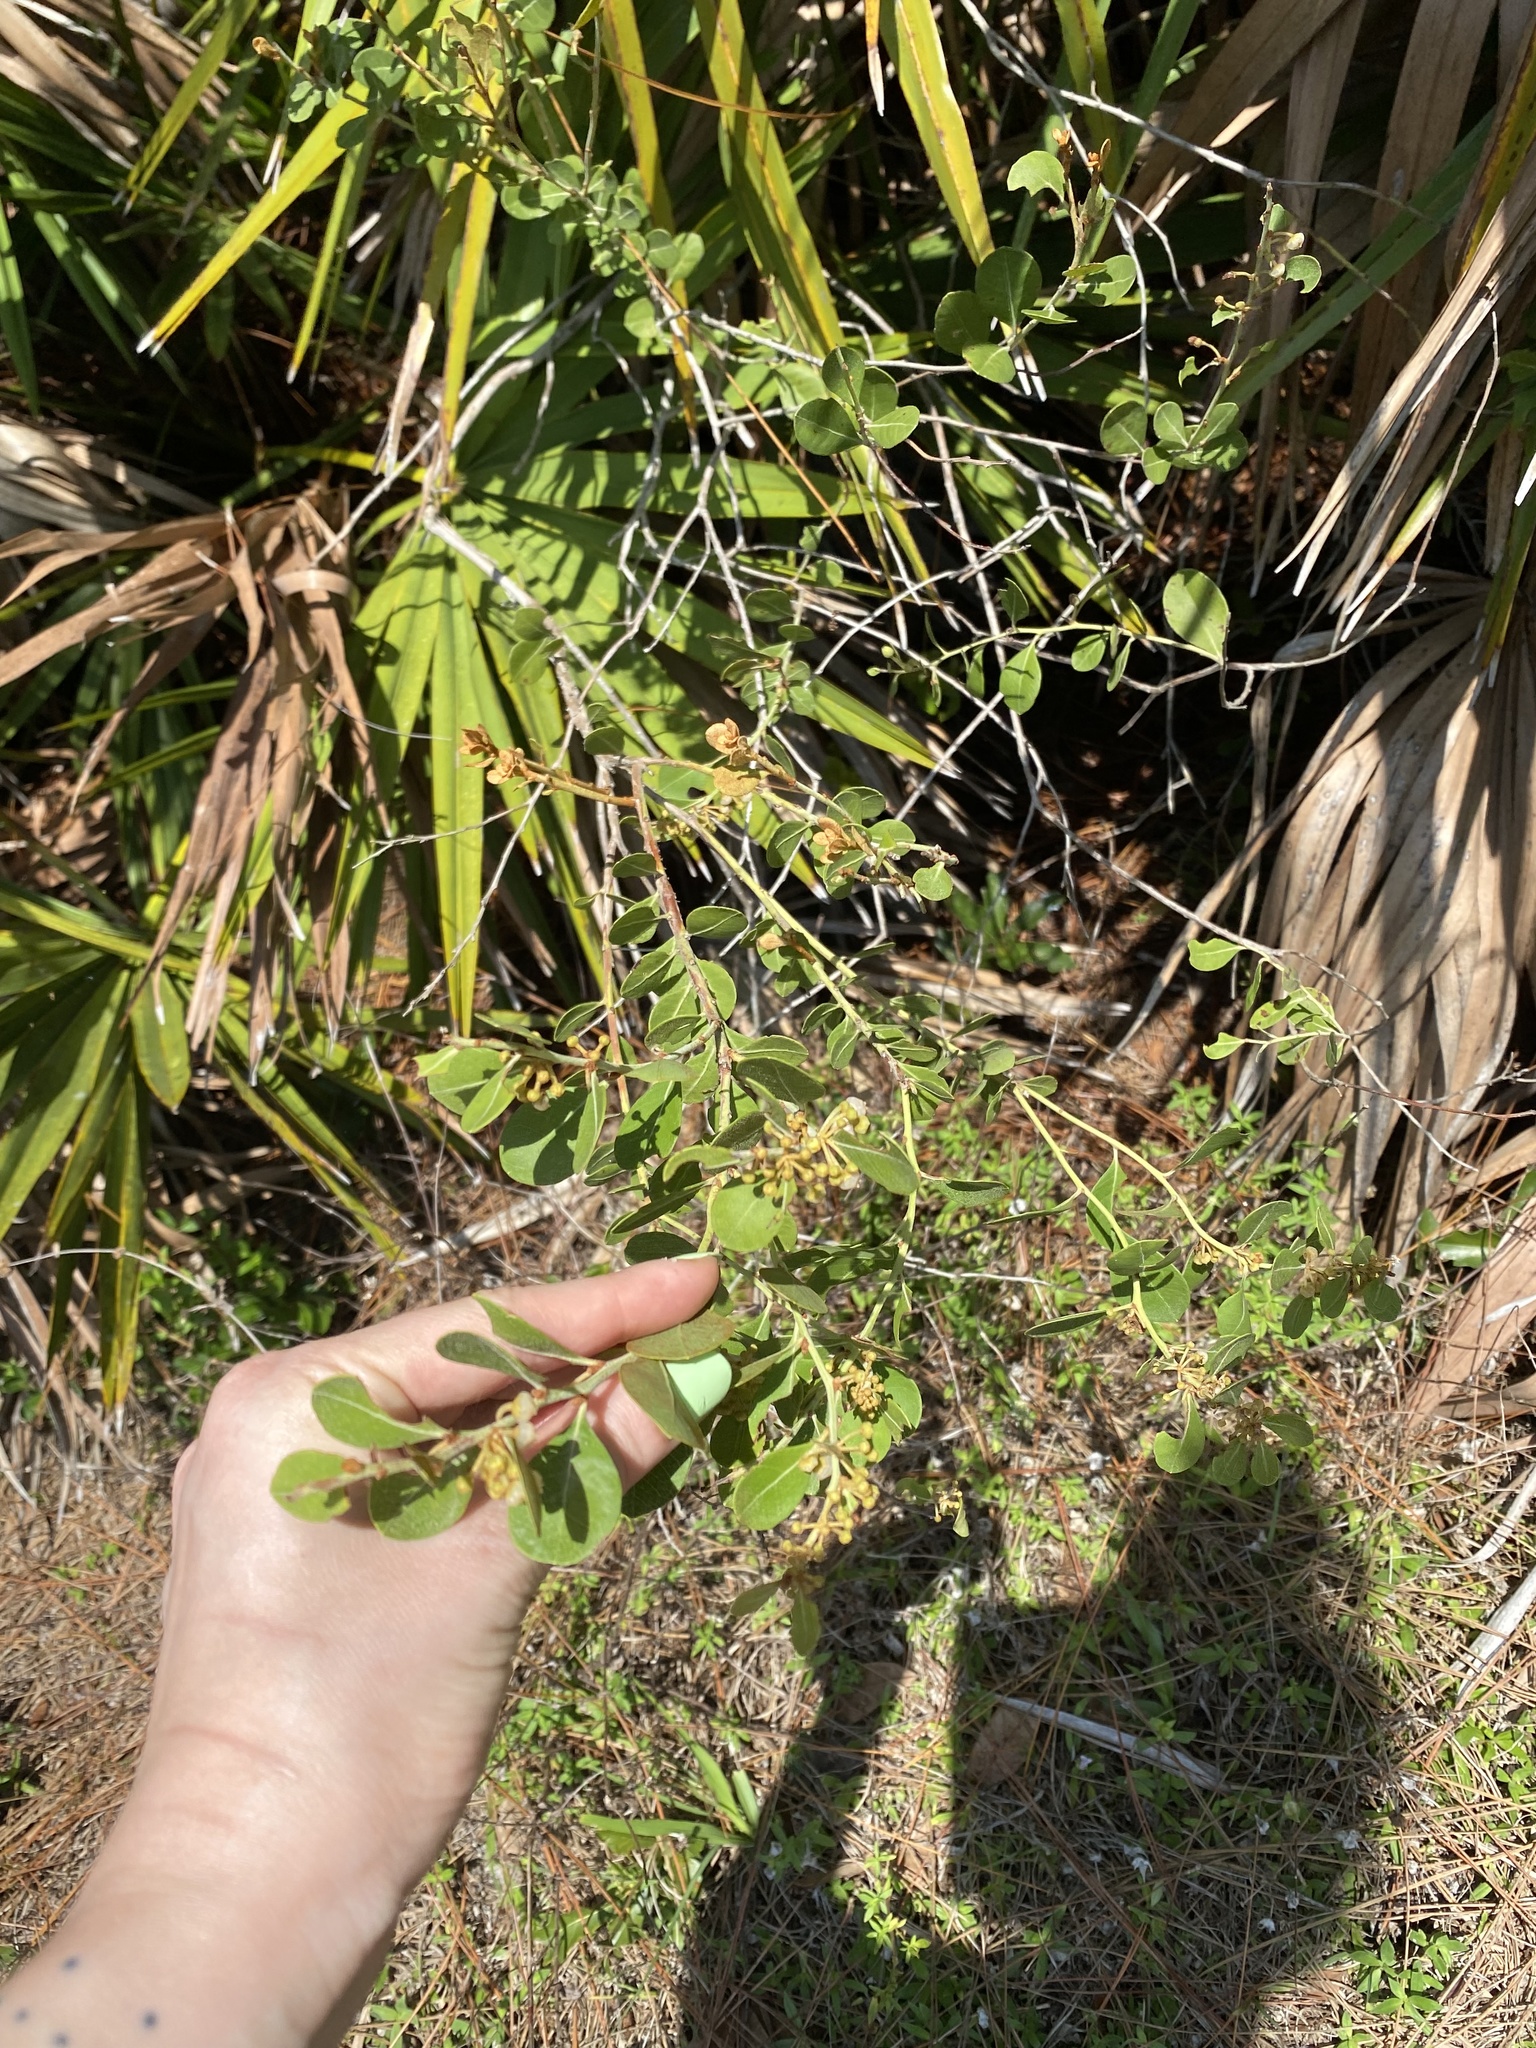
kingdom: Plantae
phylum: Tracheophyta
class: Magnoliopsida
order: Ericales
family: Ericaceae
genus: Lyonia
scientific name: Lyonia fruticosa
